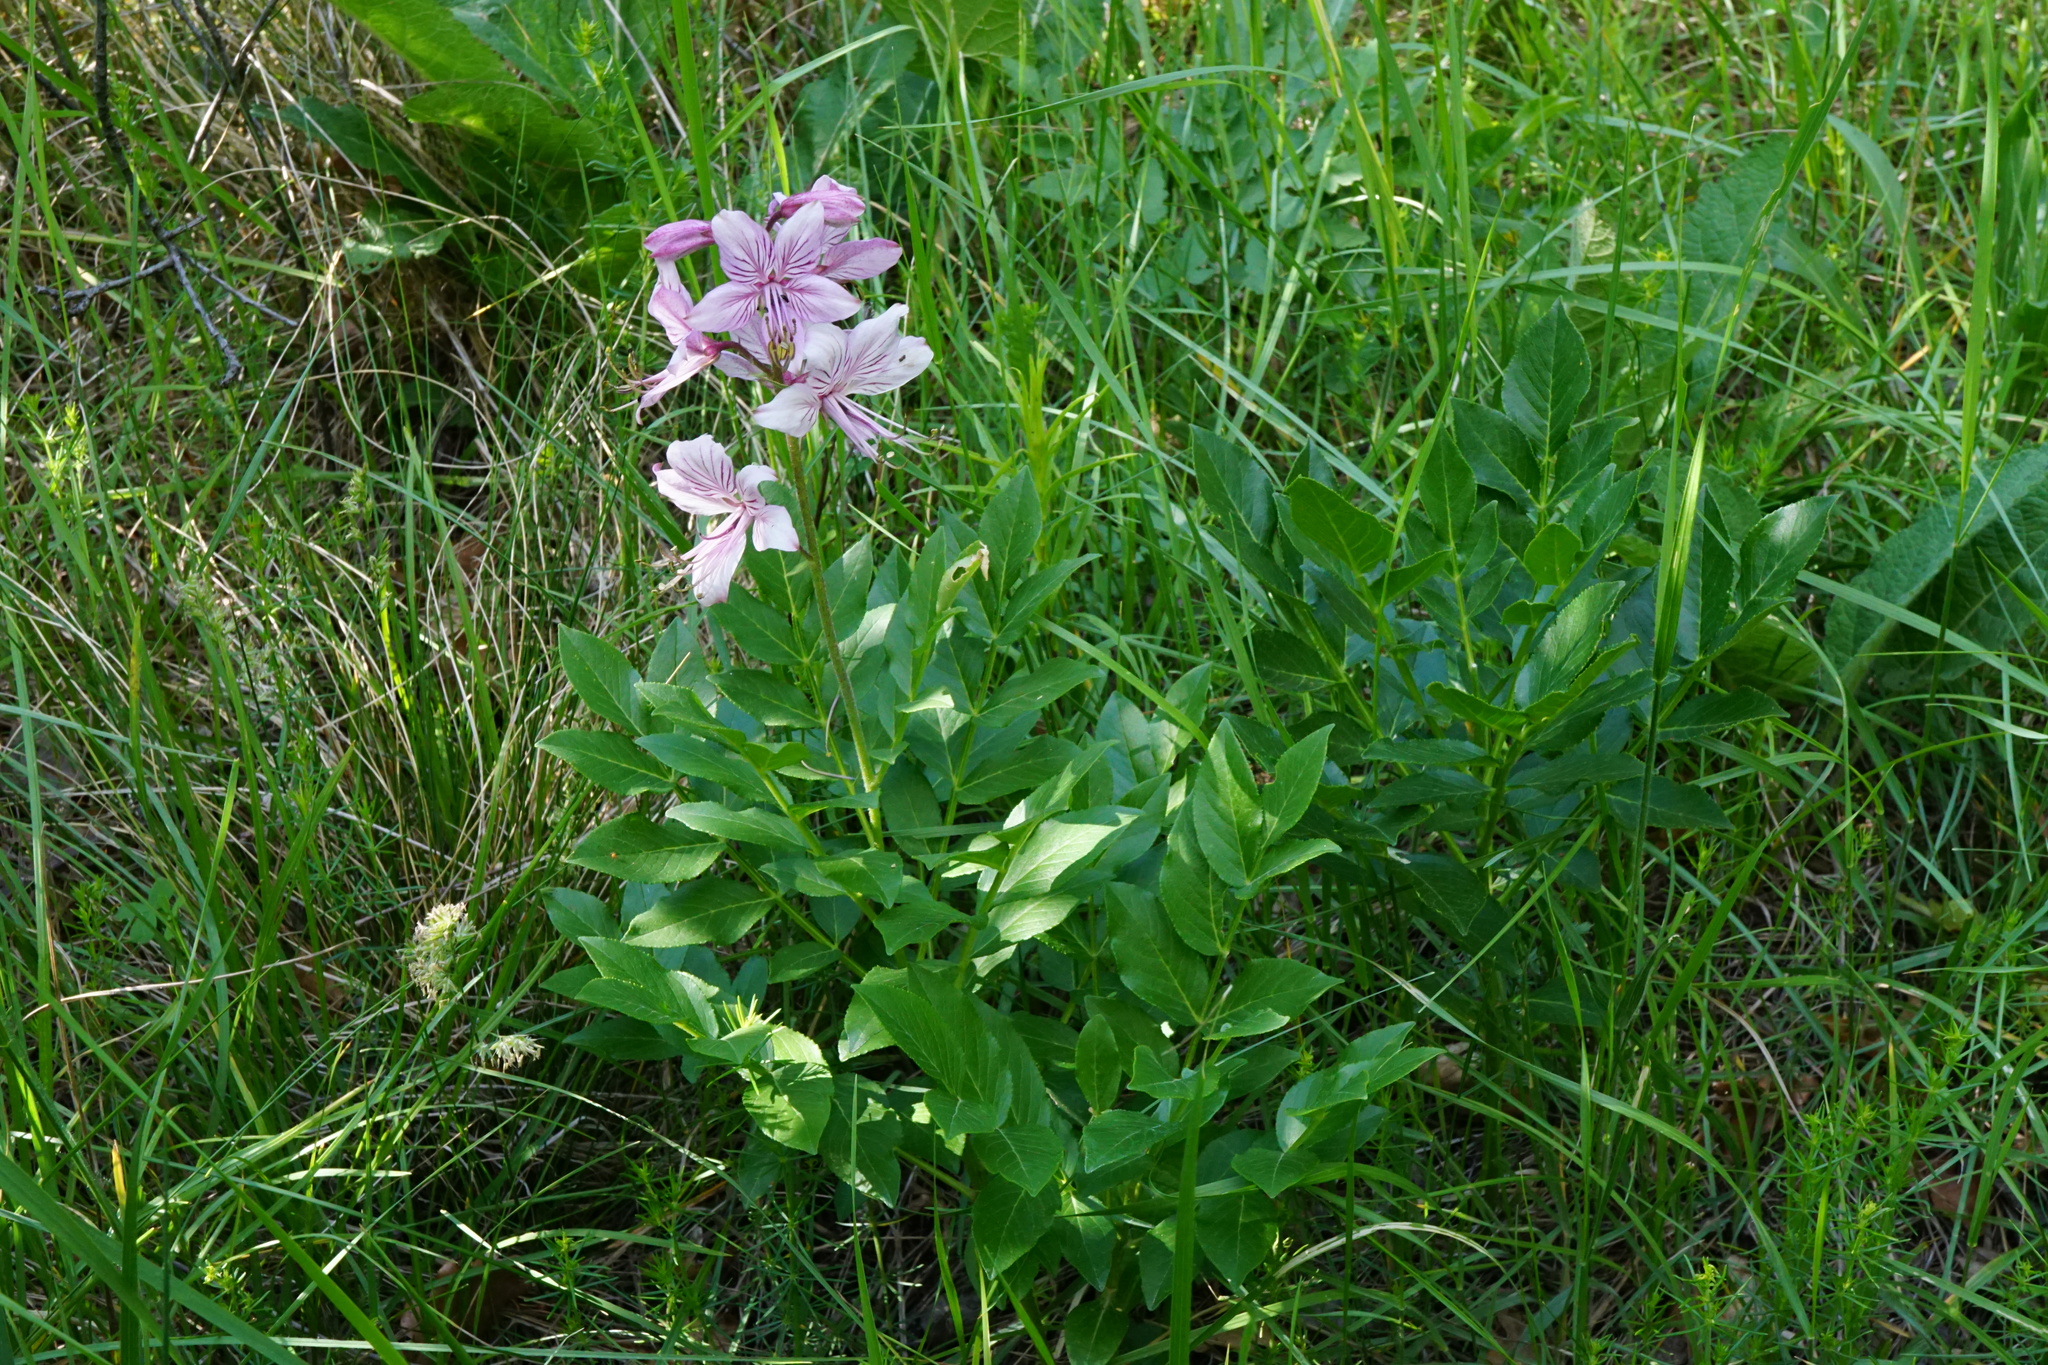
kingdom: Plantae
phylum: Tracheophyta
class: Magnoliopsida
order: Sapindales
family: Rutaceae
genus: Dictamnus
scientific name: Dictamnus albus
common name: Gasplant
